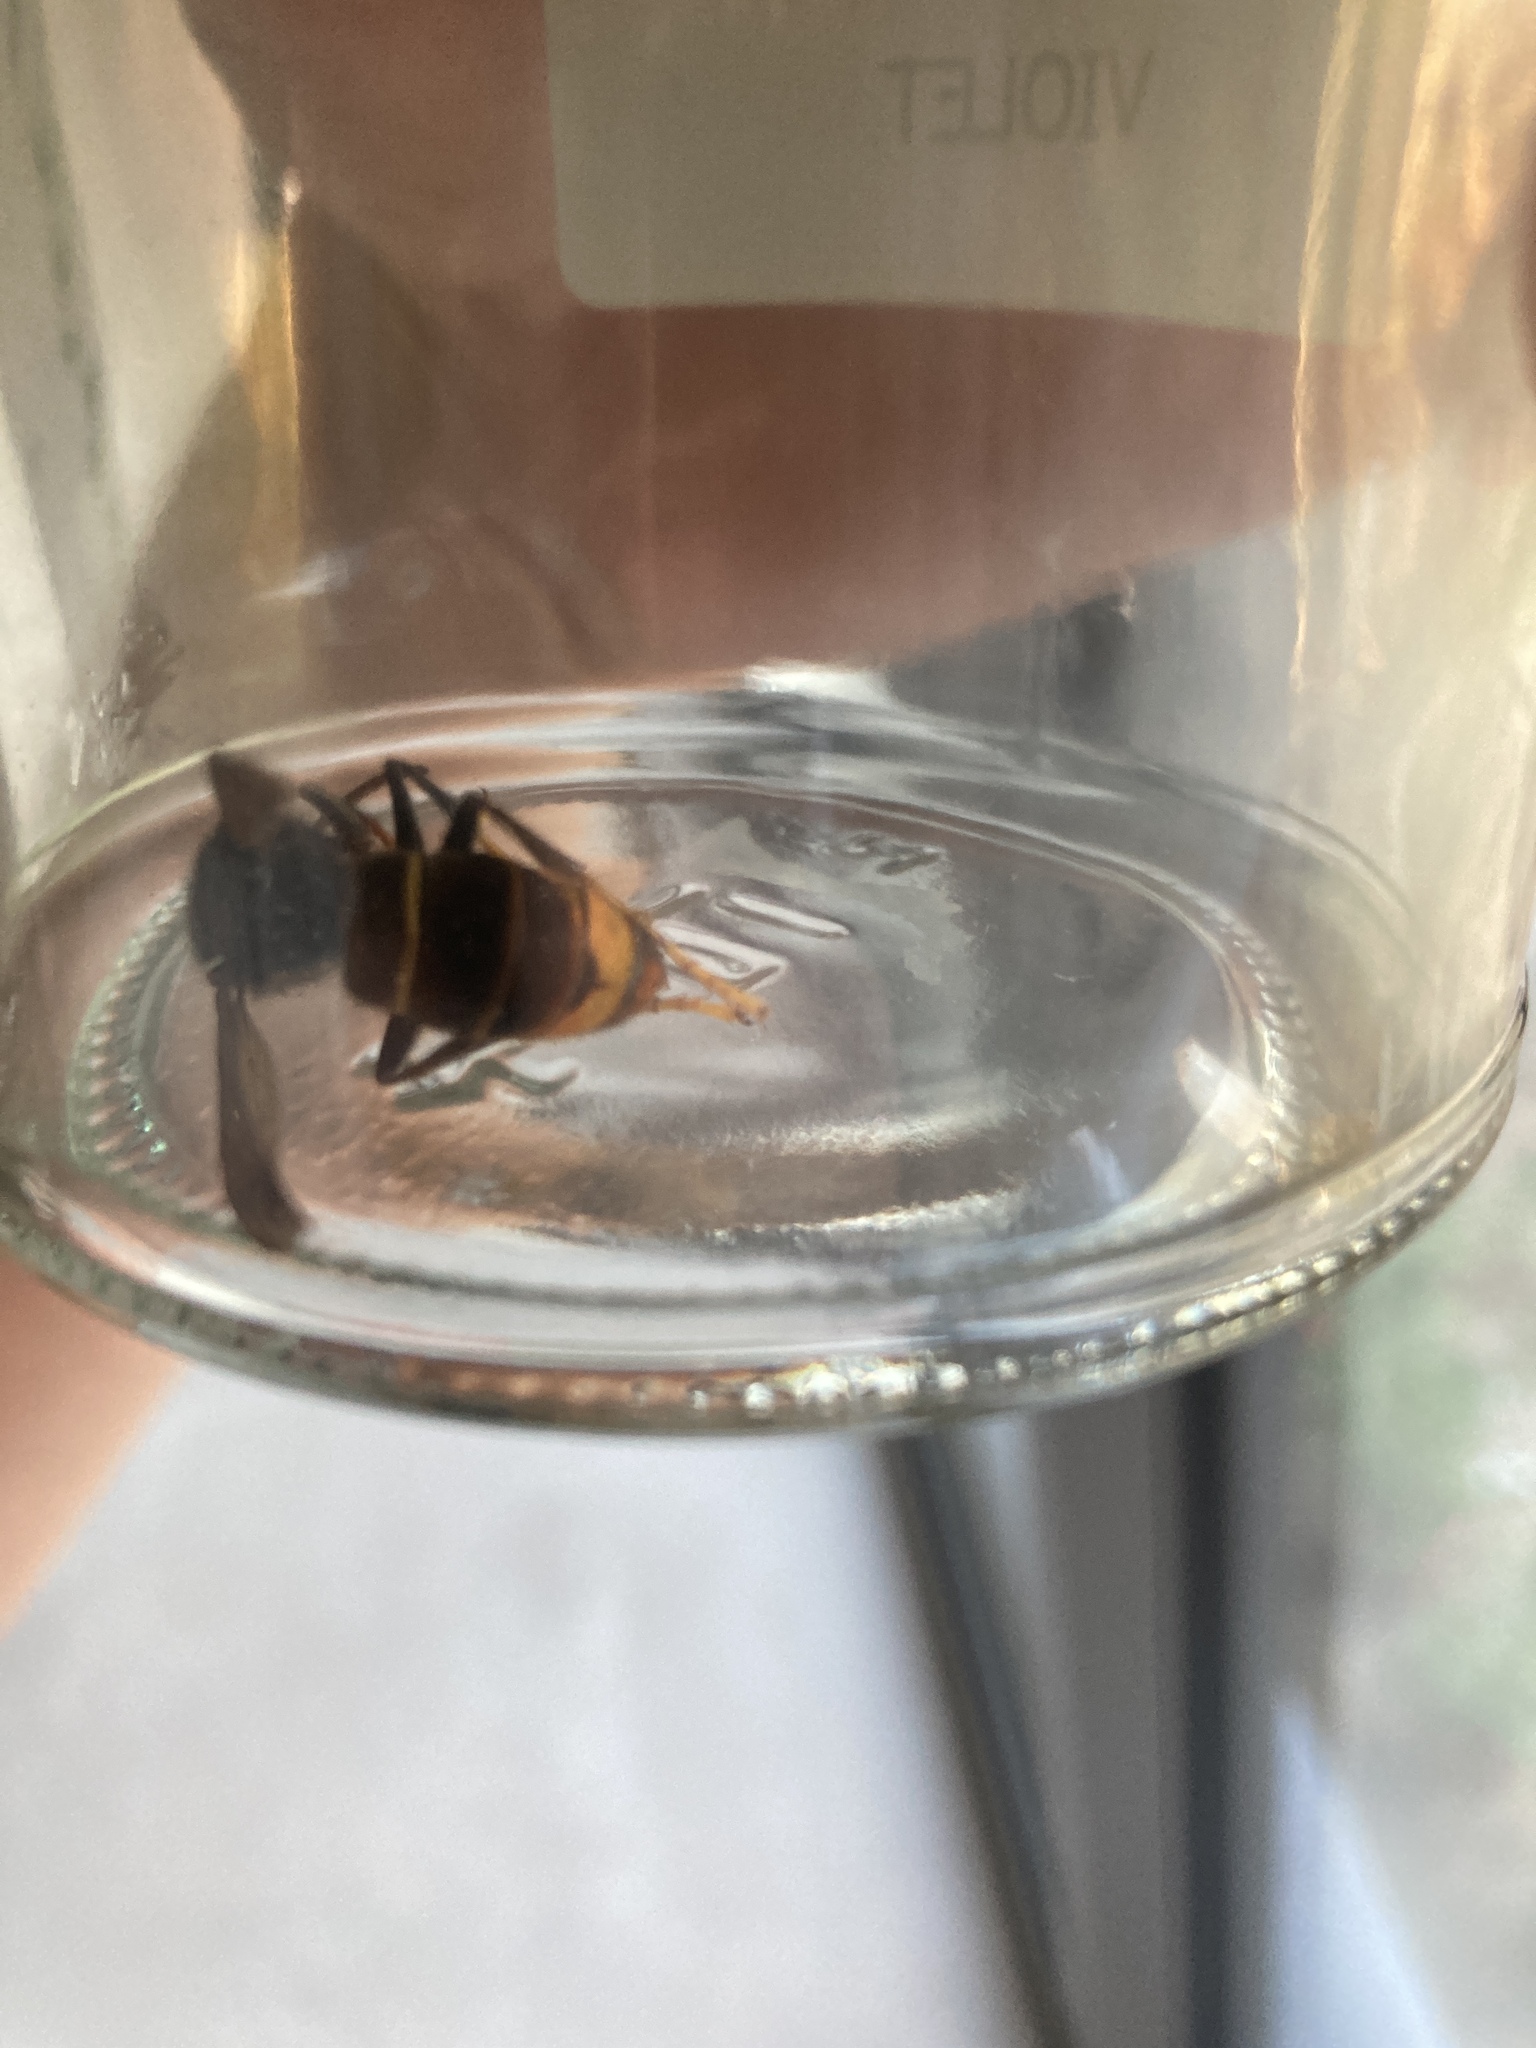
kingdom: Animalia
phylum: Arthropoda
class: Insecta
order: Hymenoptera
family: Vespidae
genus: Vespa
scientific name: Vespa velutina
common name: Asian hornet
